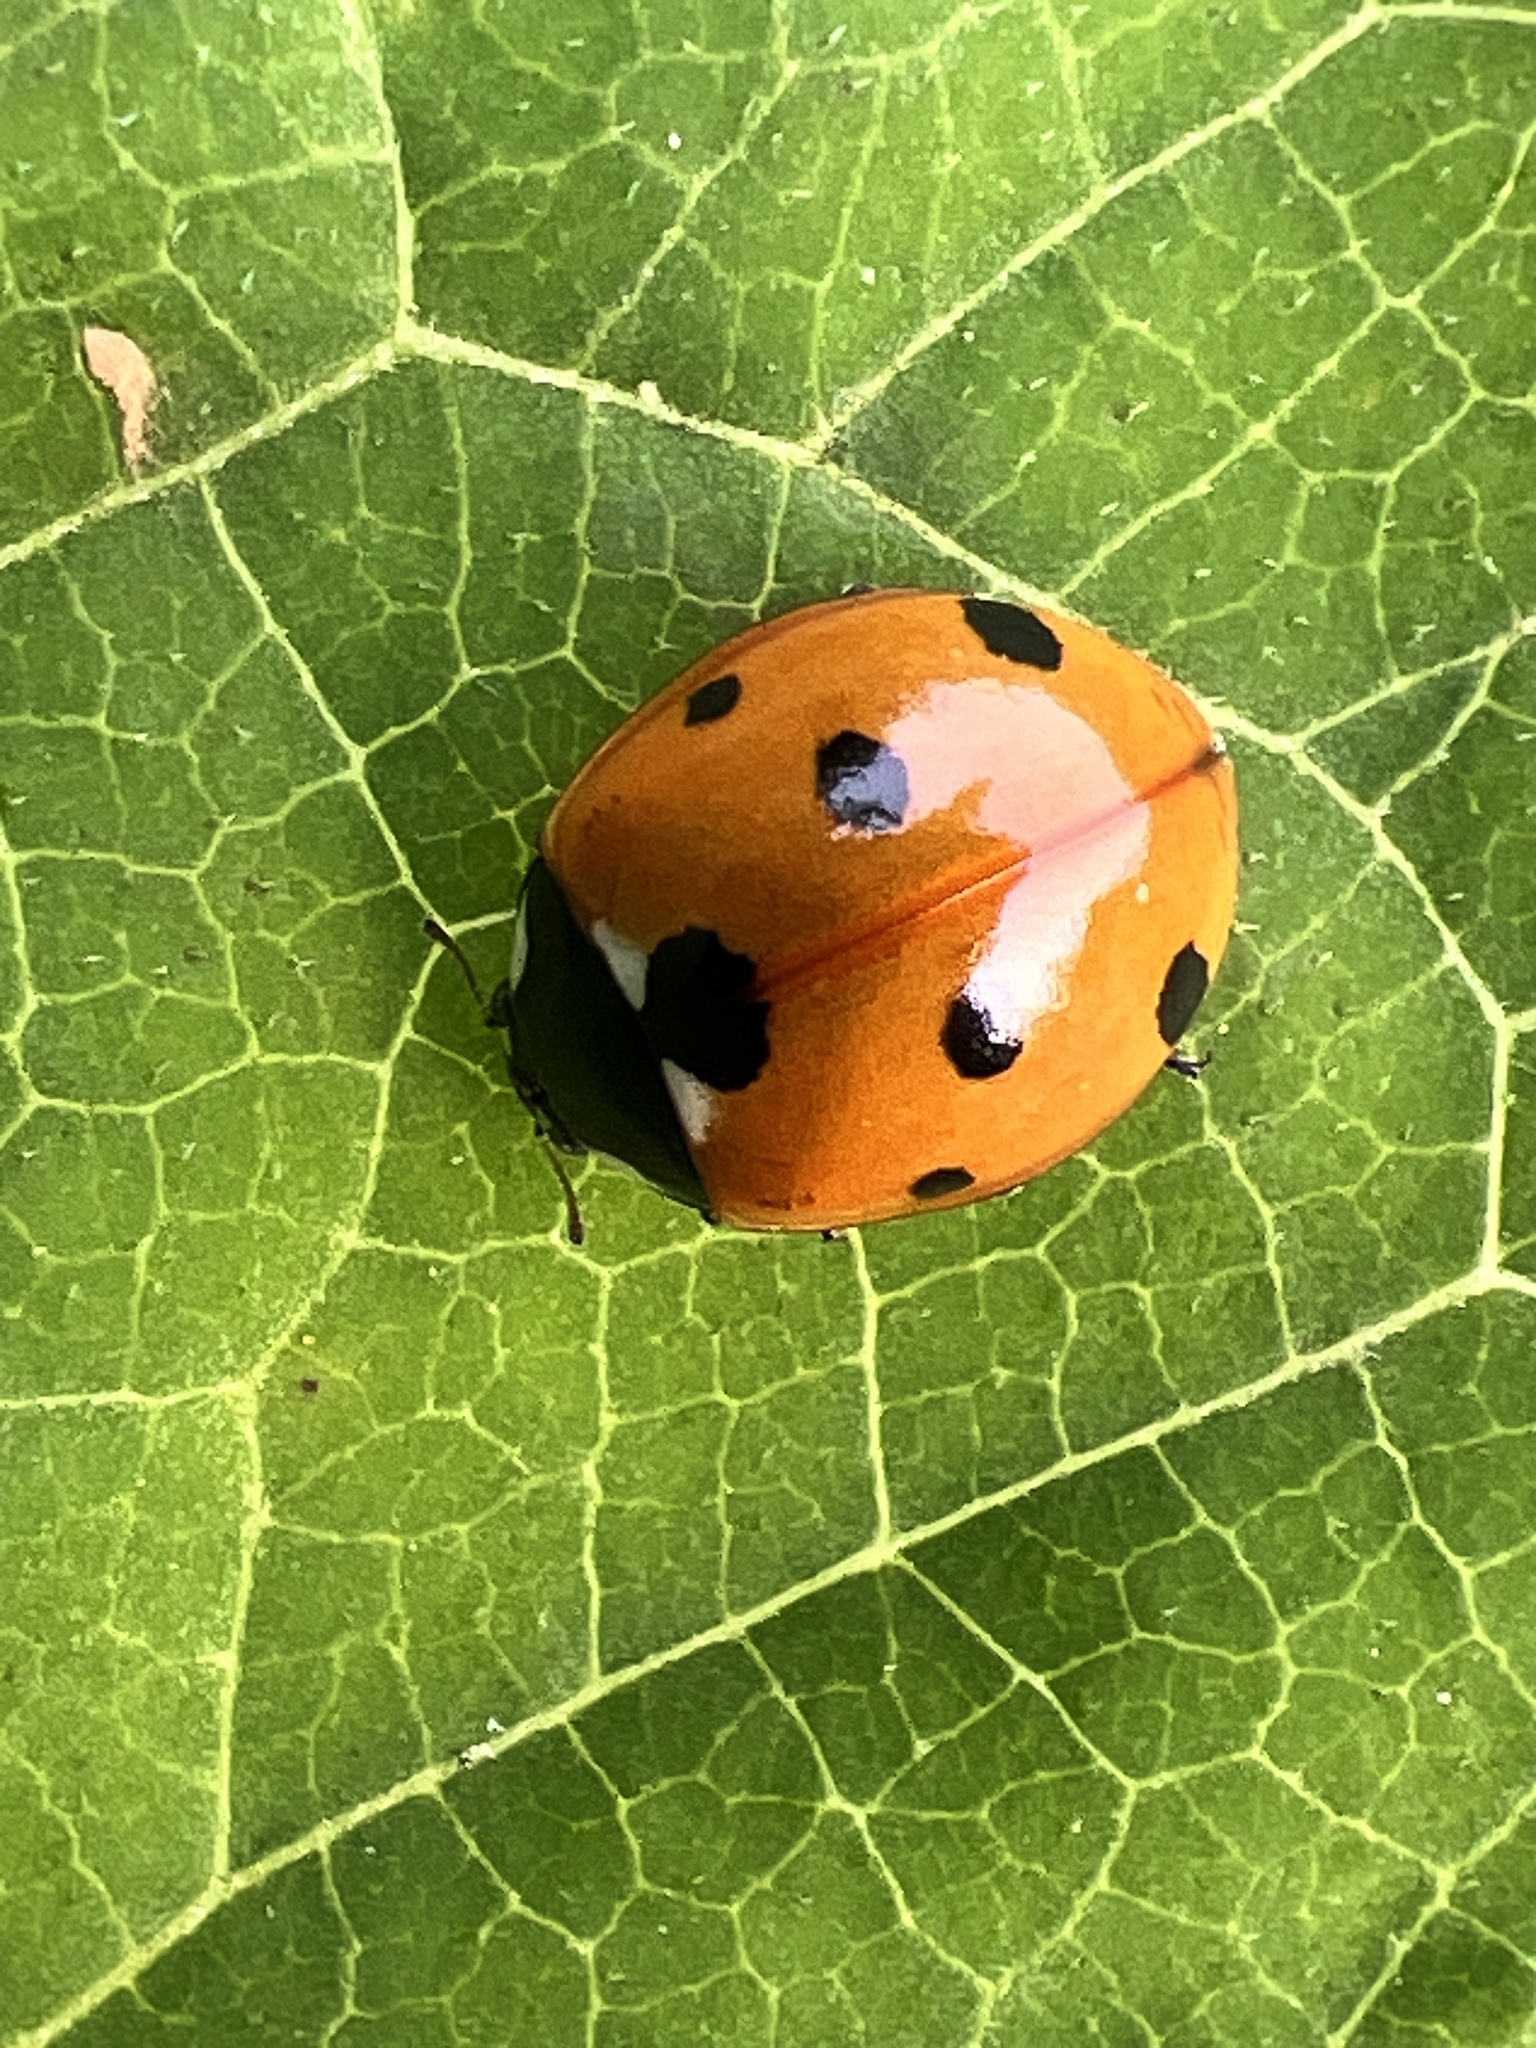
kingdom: Animalia
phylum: Arthropoda
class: Insecta
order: Coleoptera
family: Coccinellidae
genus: Coccinella
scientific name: Coccinella septempunctata
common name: Sevenspotted lady beetle
